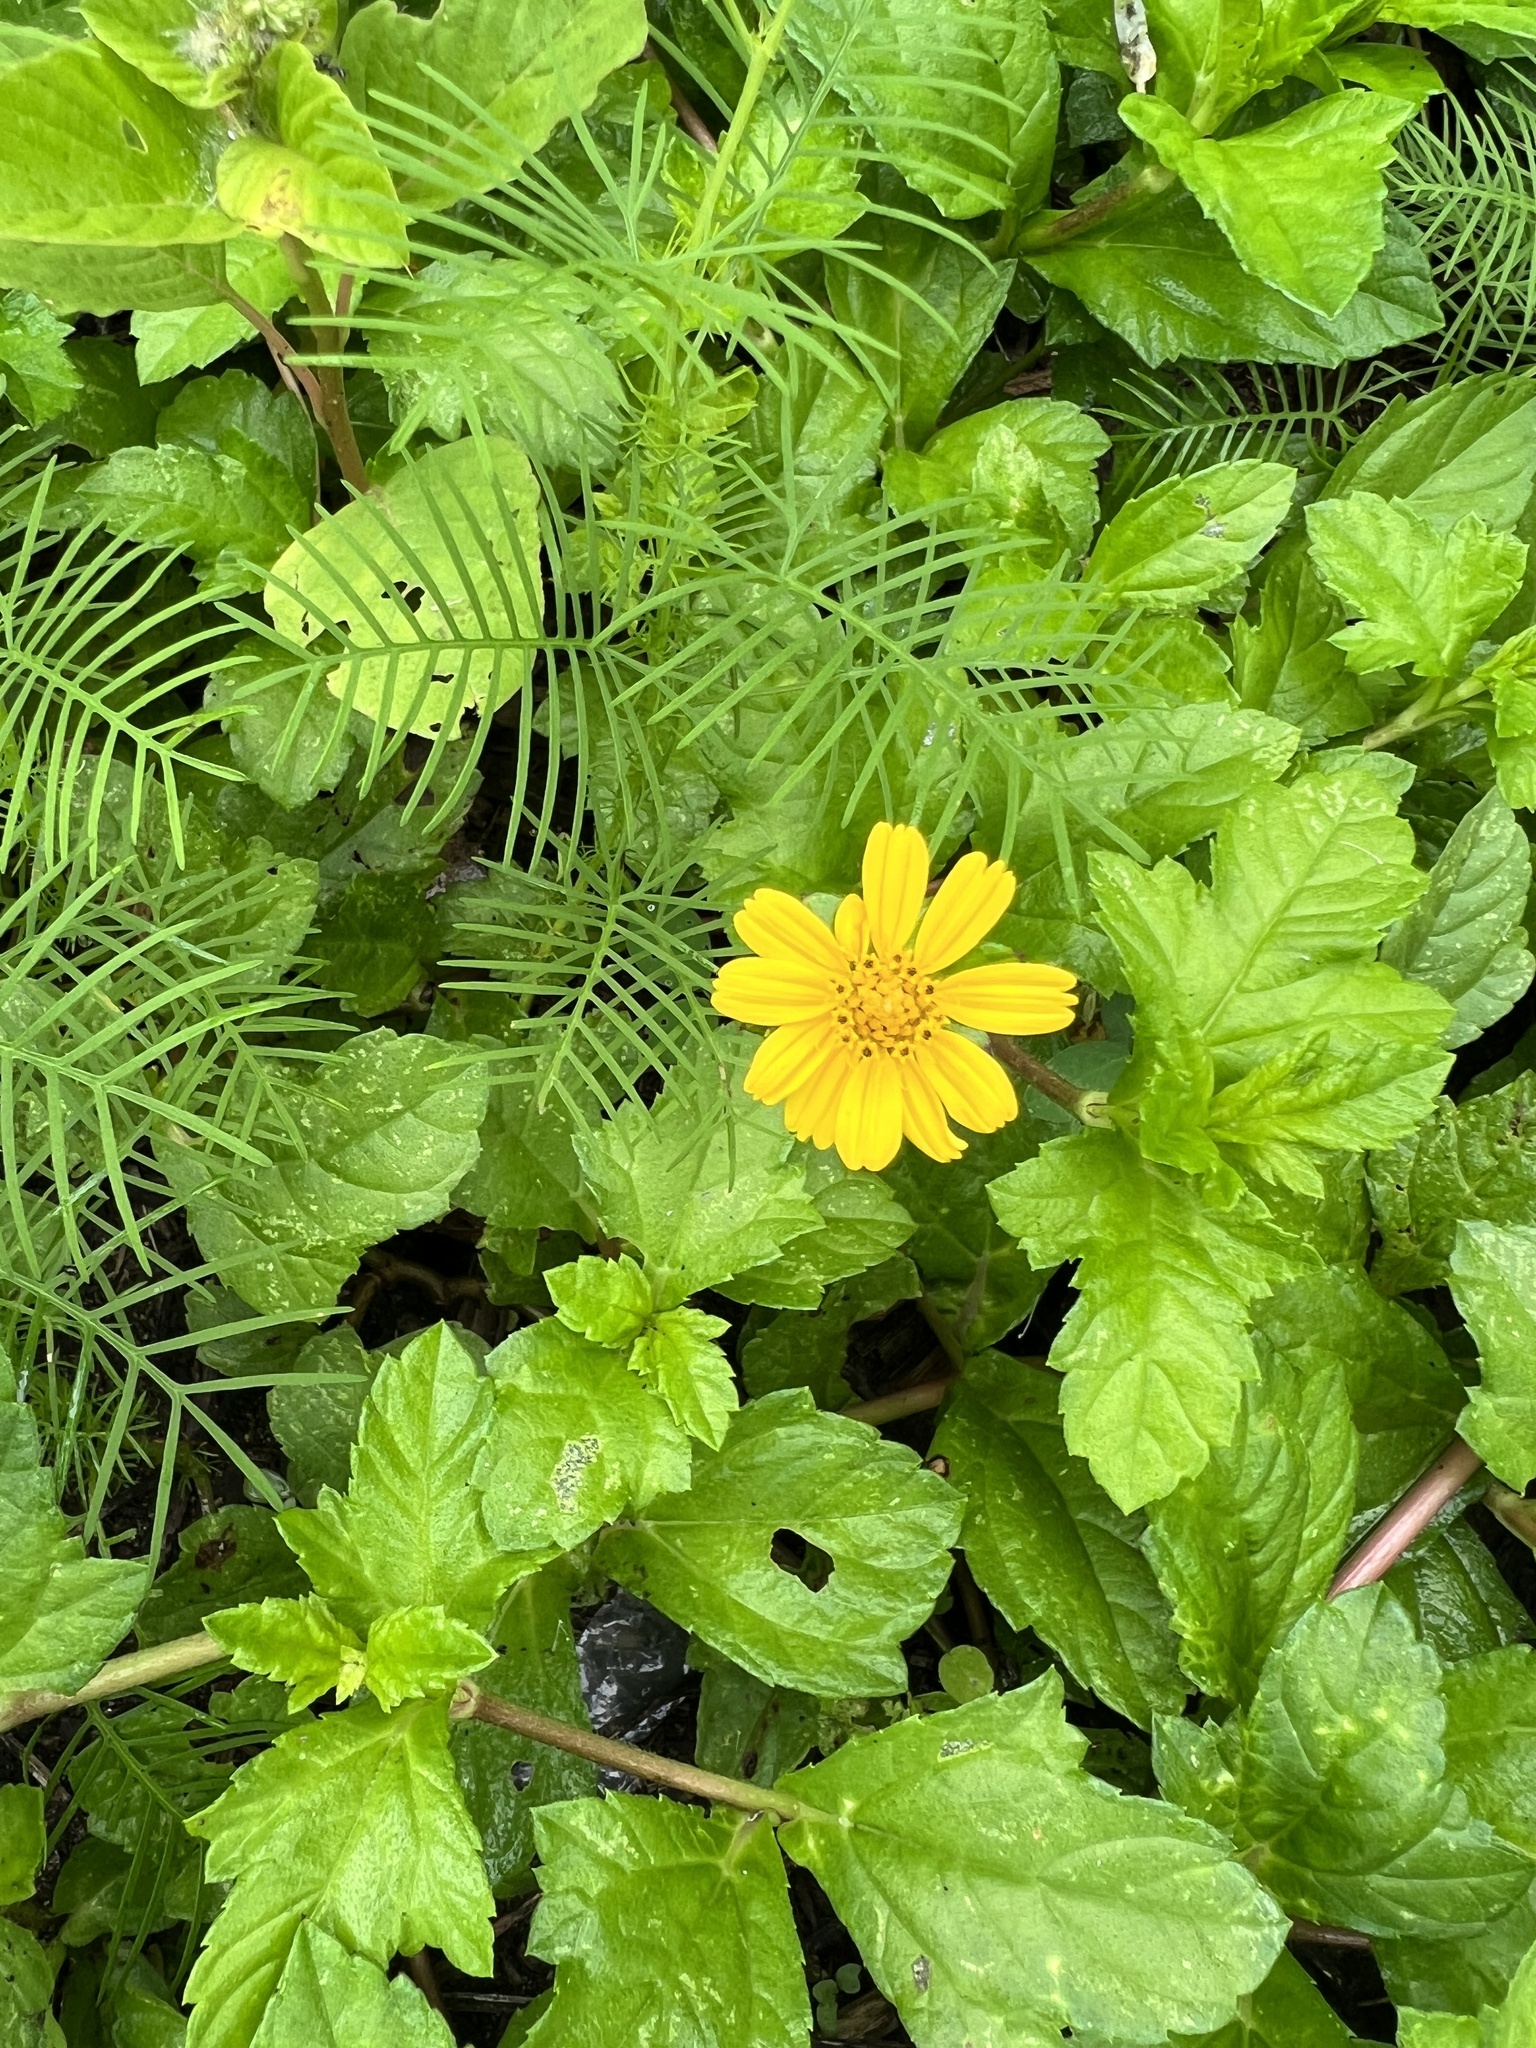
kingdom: Plantae
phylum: Tracheophyta
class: Magnoliopsida
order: Asterales
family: Asteraceae
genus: Sphagneticola
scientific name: Sphagneticola trilobata
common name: Bay biscayne creeping-oxeye
